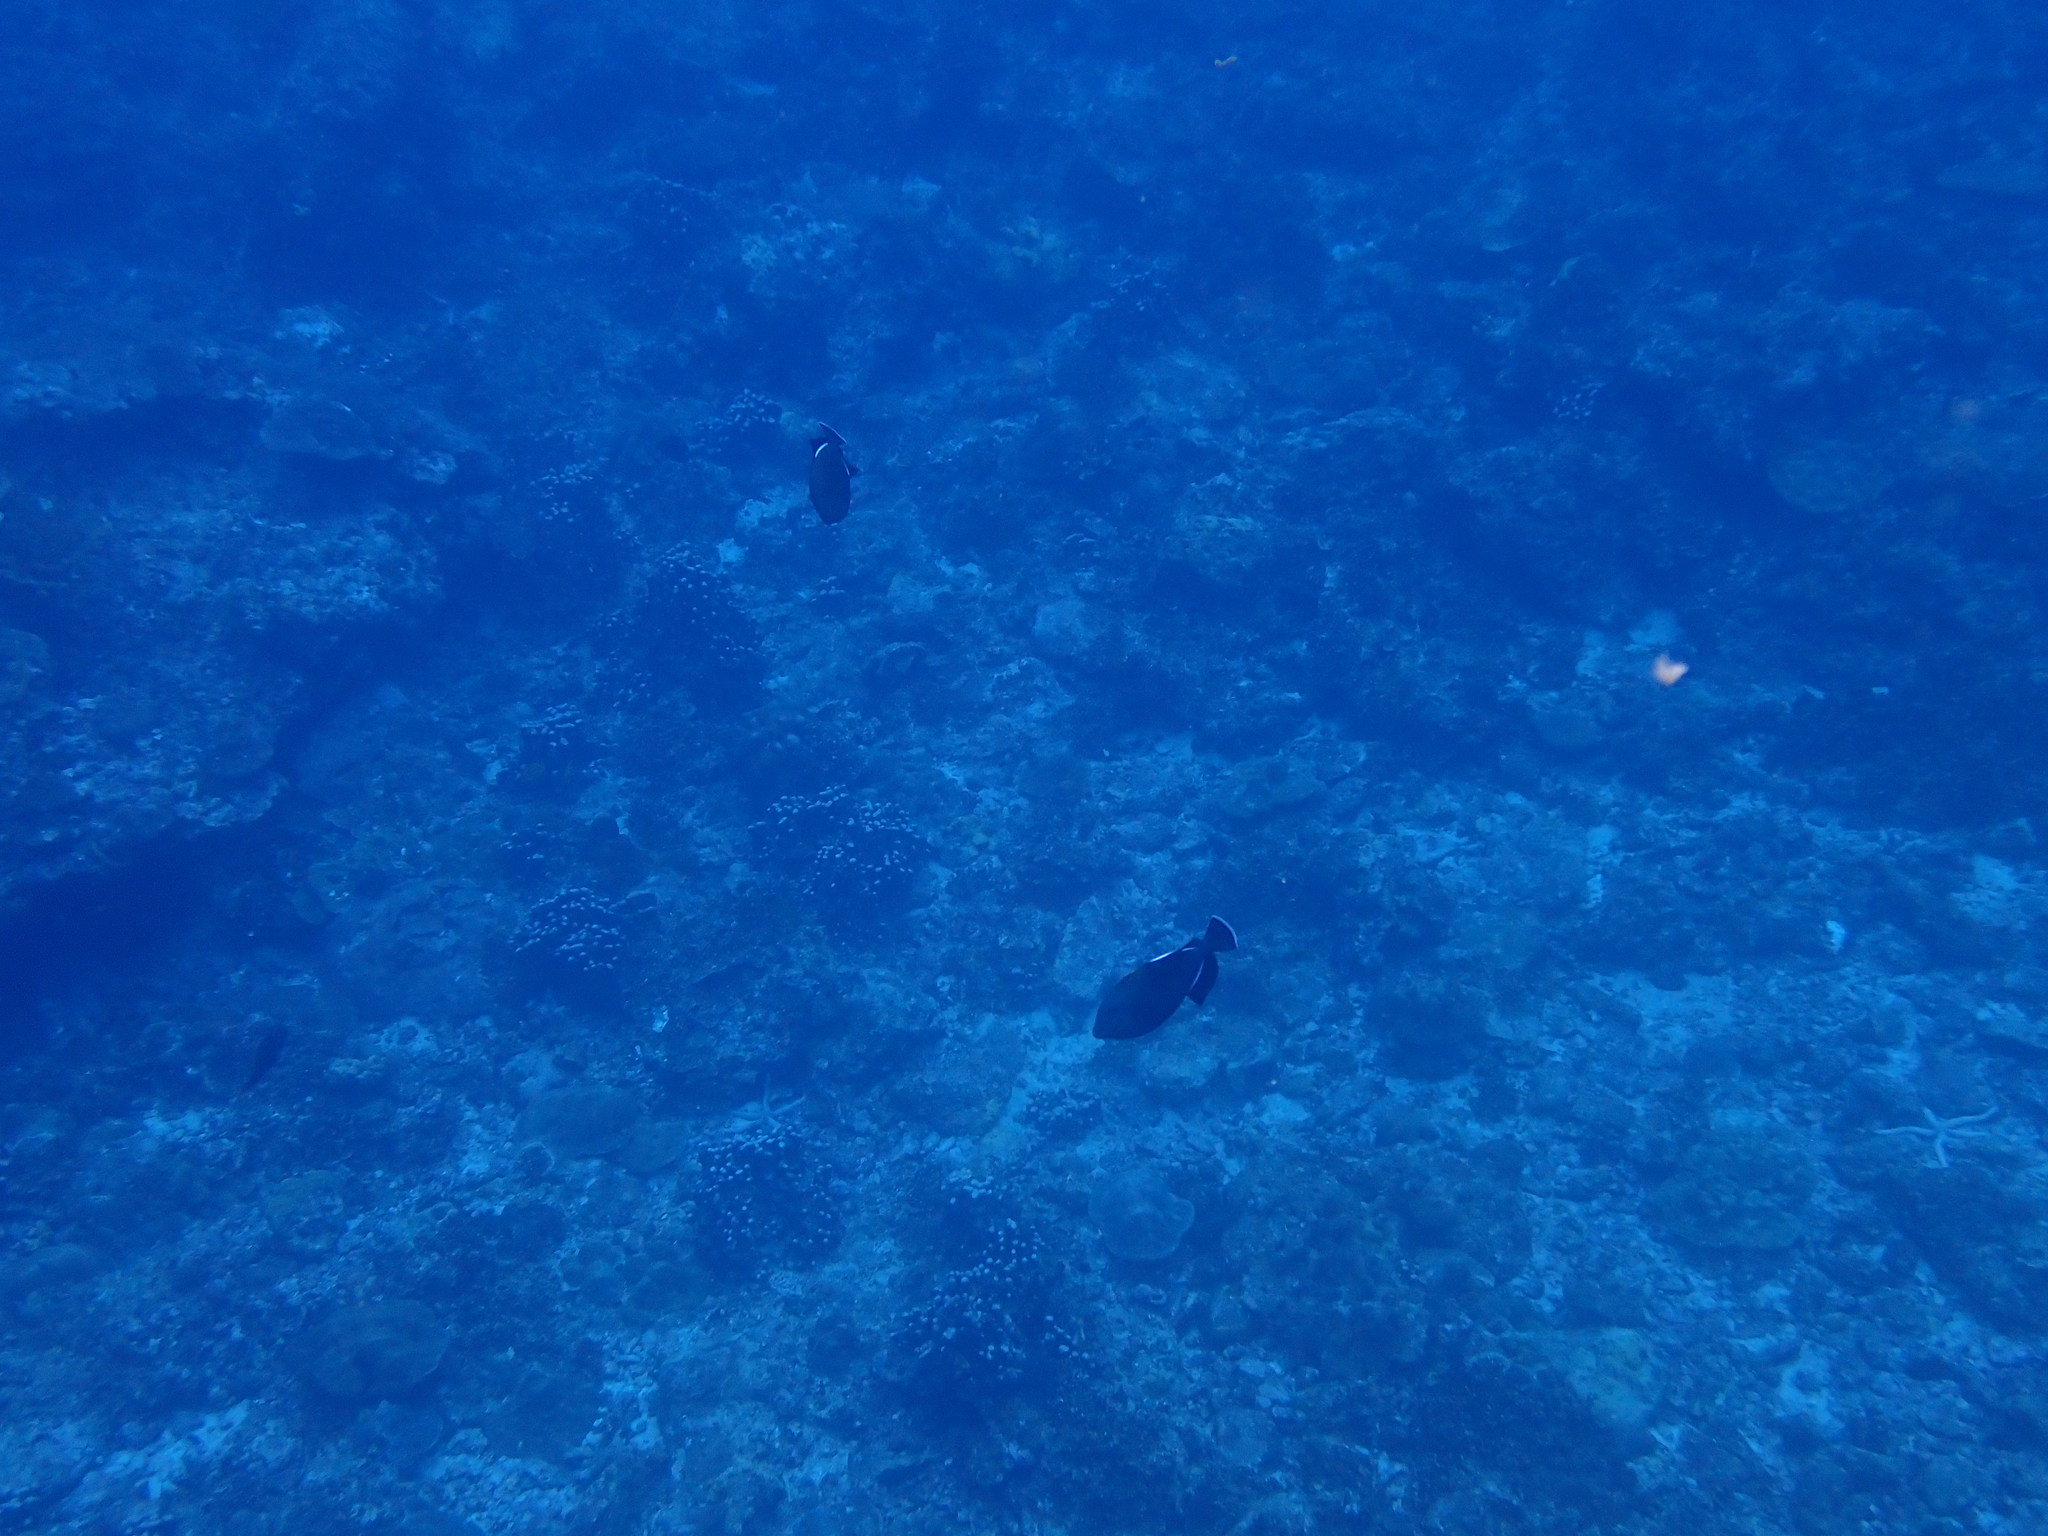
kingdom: Animalia
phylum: Chordata
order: Tetraodontiformes
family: Balistidae
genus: Melichthys
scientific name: Melichthys indicus
